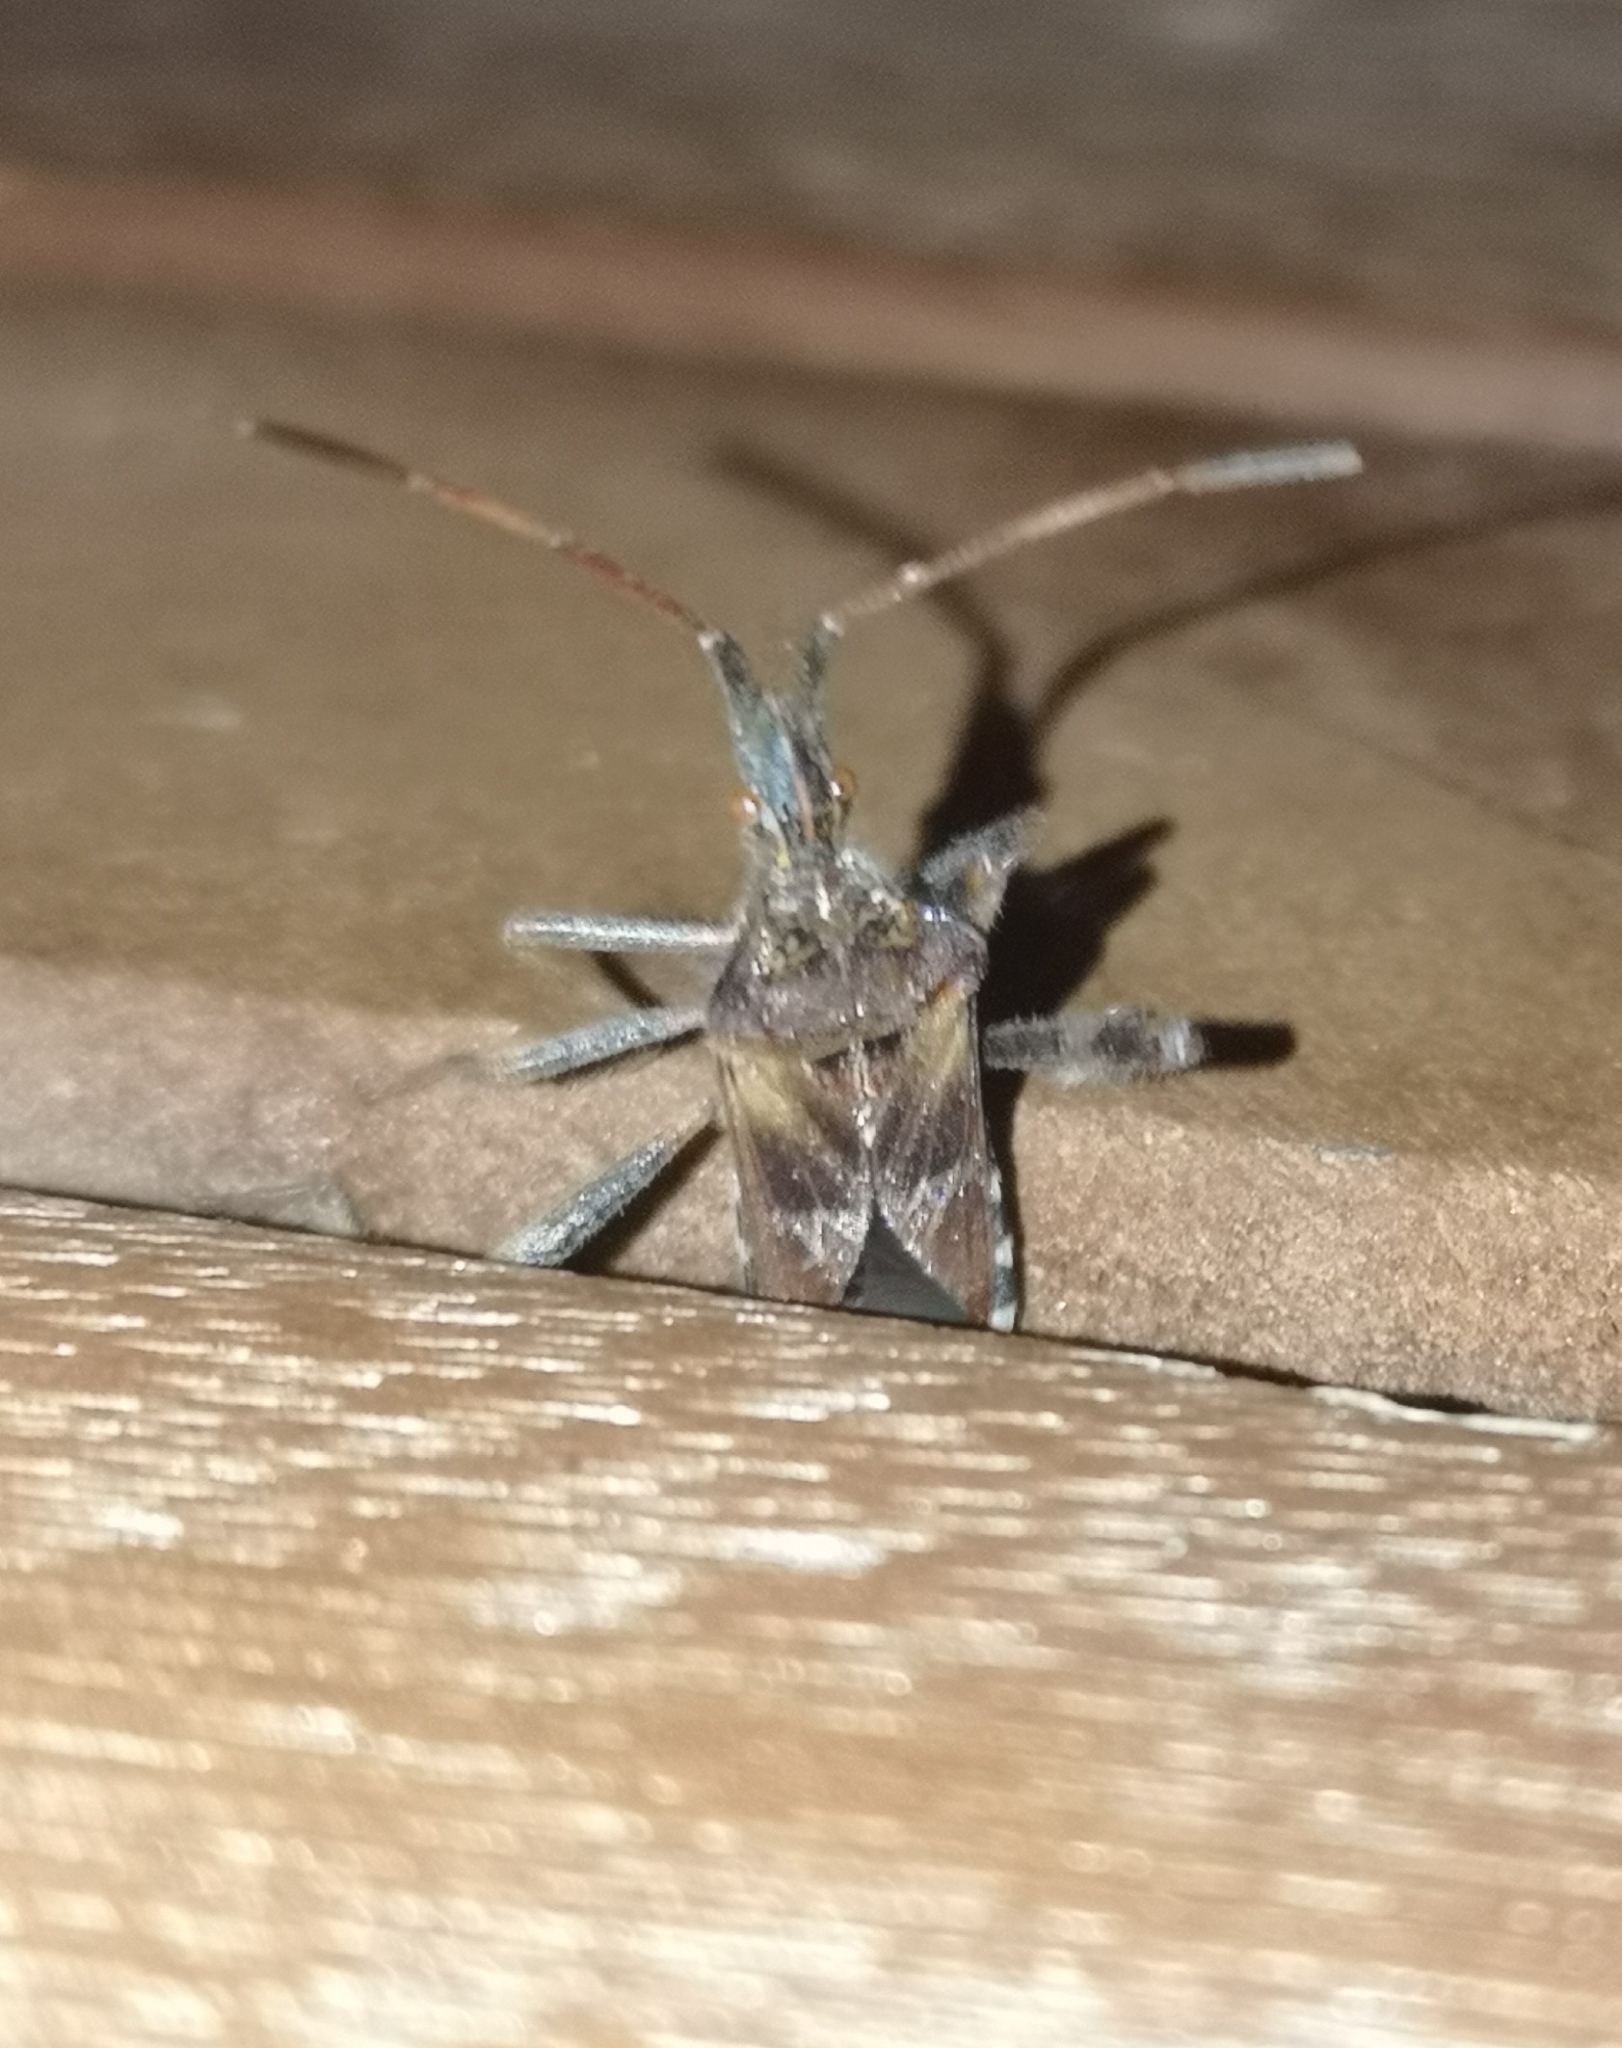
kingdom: Animalia
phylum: Arthropoda
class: Insecta
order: Hemiptera
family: Coreidae
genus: Leptoglossus
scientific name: Leptoglossus occidentalis
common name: Western conifer-seed bug
